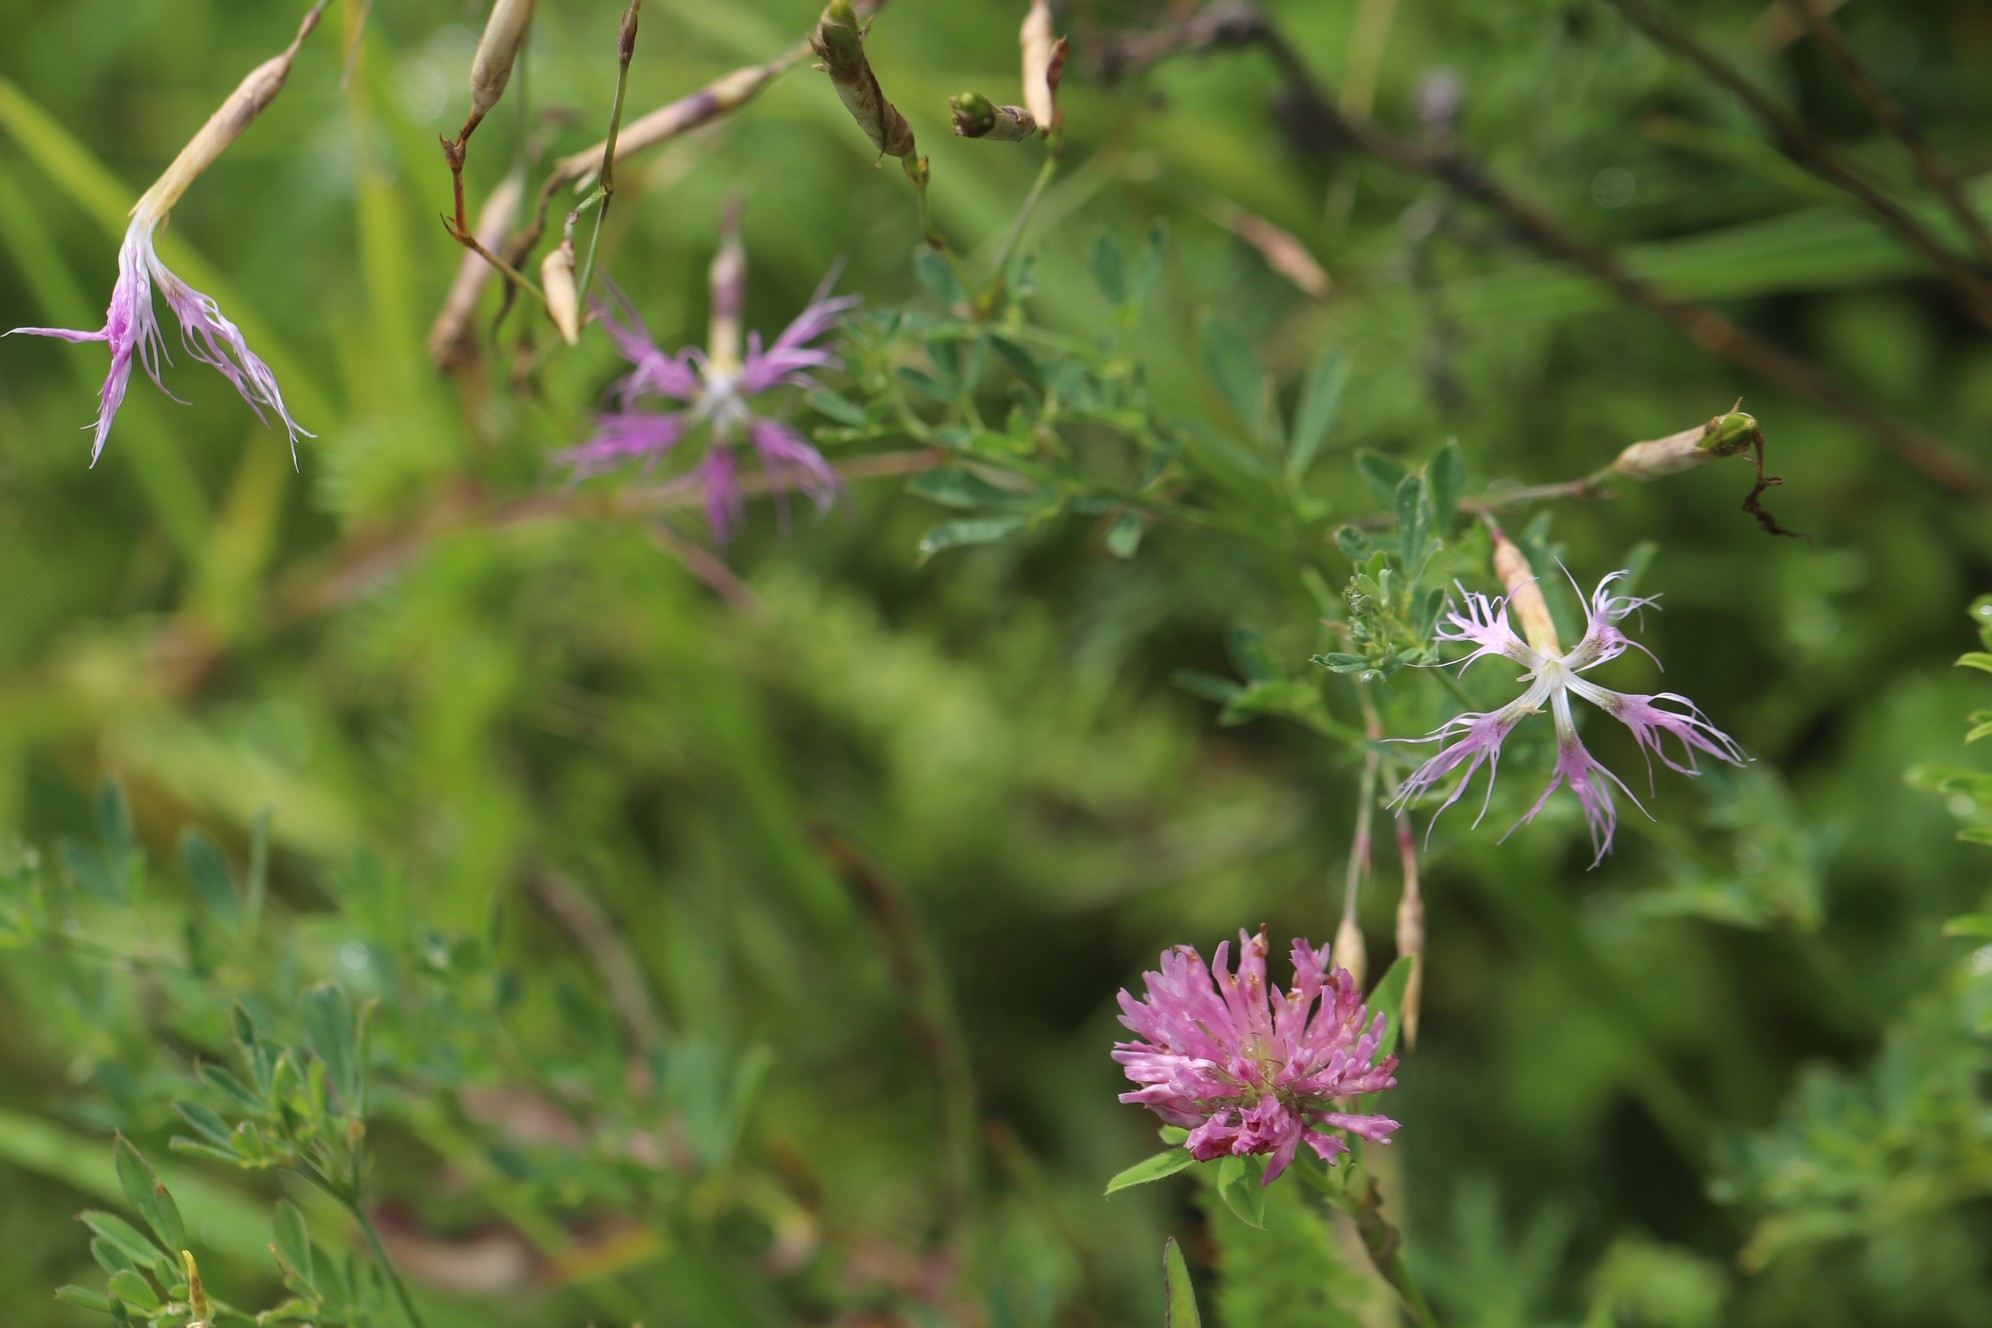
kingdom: Plantae
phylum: Tracheophyta
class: Magnoliopsida
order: Caryophyllales
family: Caryophyllaceae
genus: Dianthus
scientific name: Dianthus superbus
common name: Fringed pink
